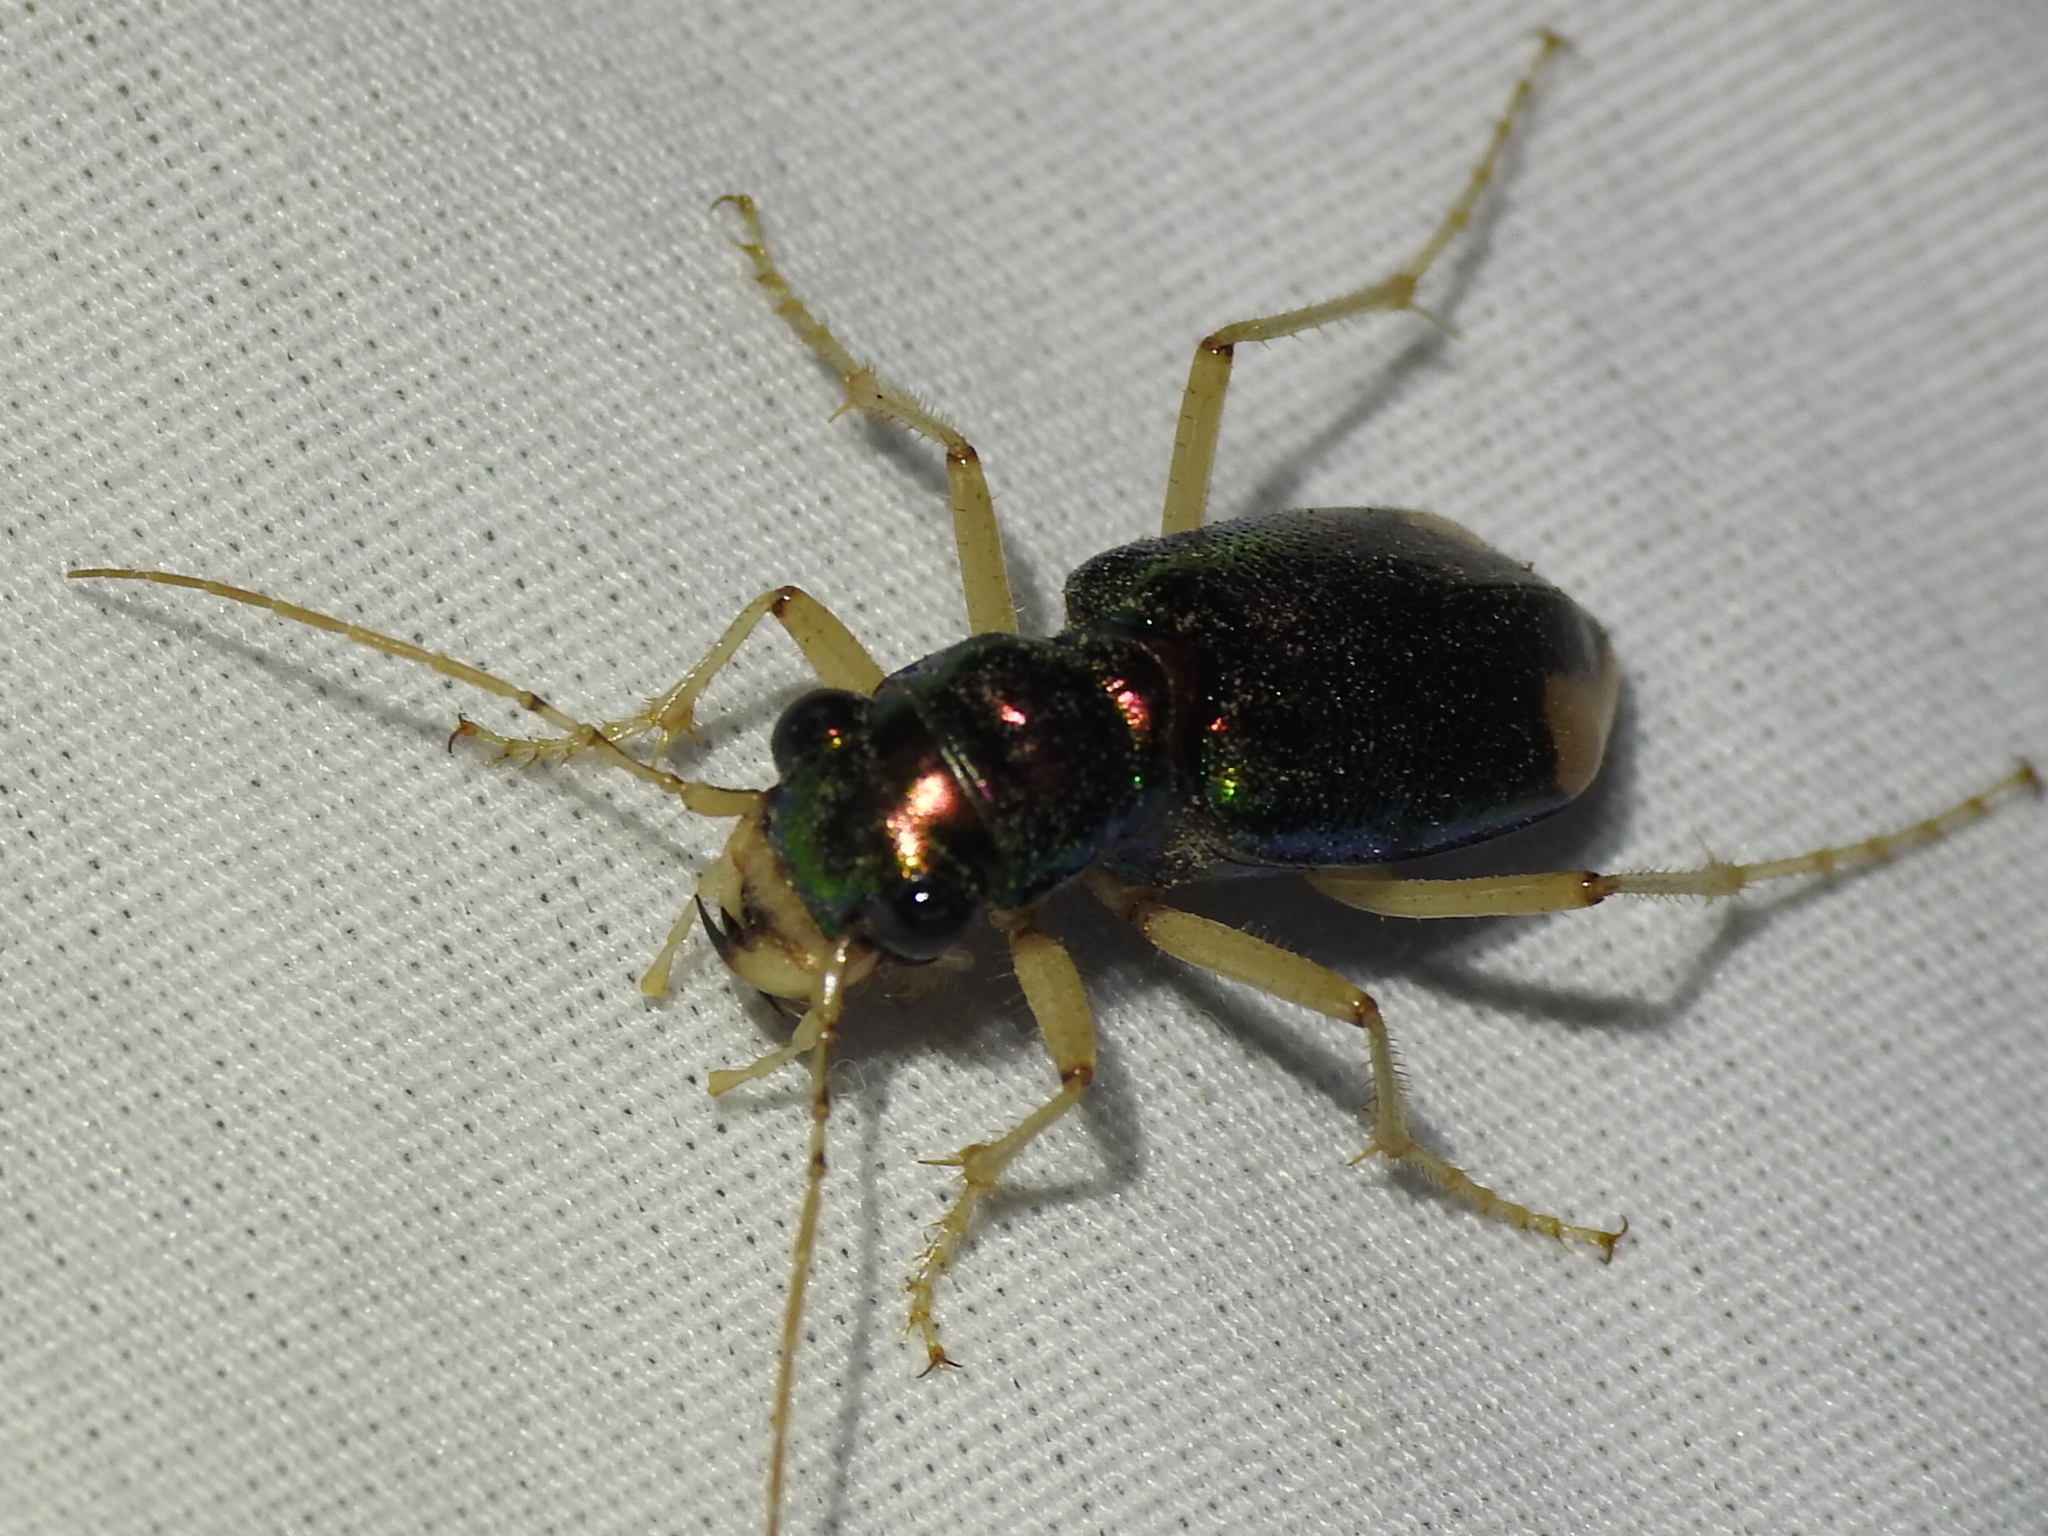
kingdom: Animalia
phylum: Arthropoda
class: Insecta
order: Coleoptera
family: Carabidae
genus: Tetracha
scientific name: Tetracha carolina
